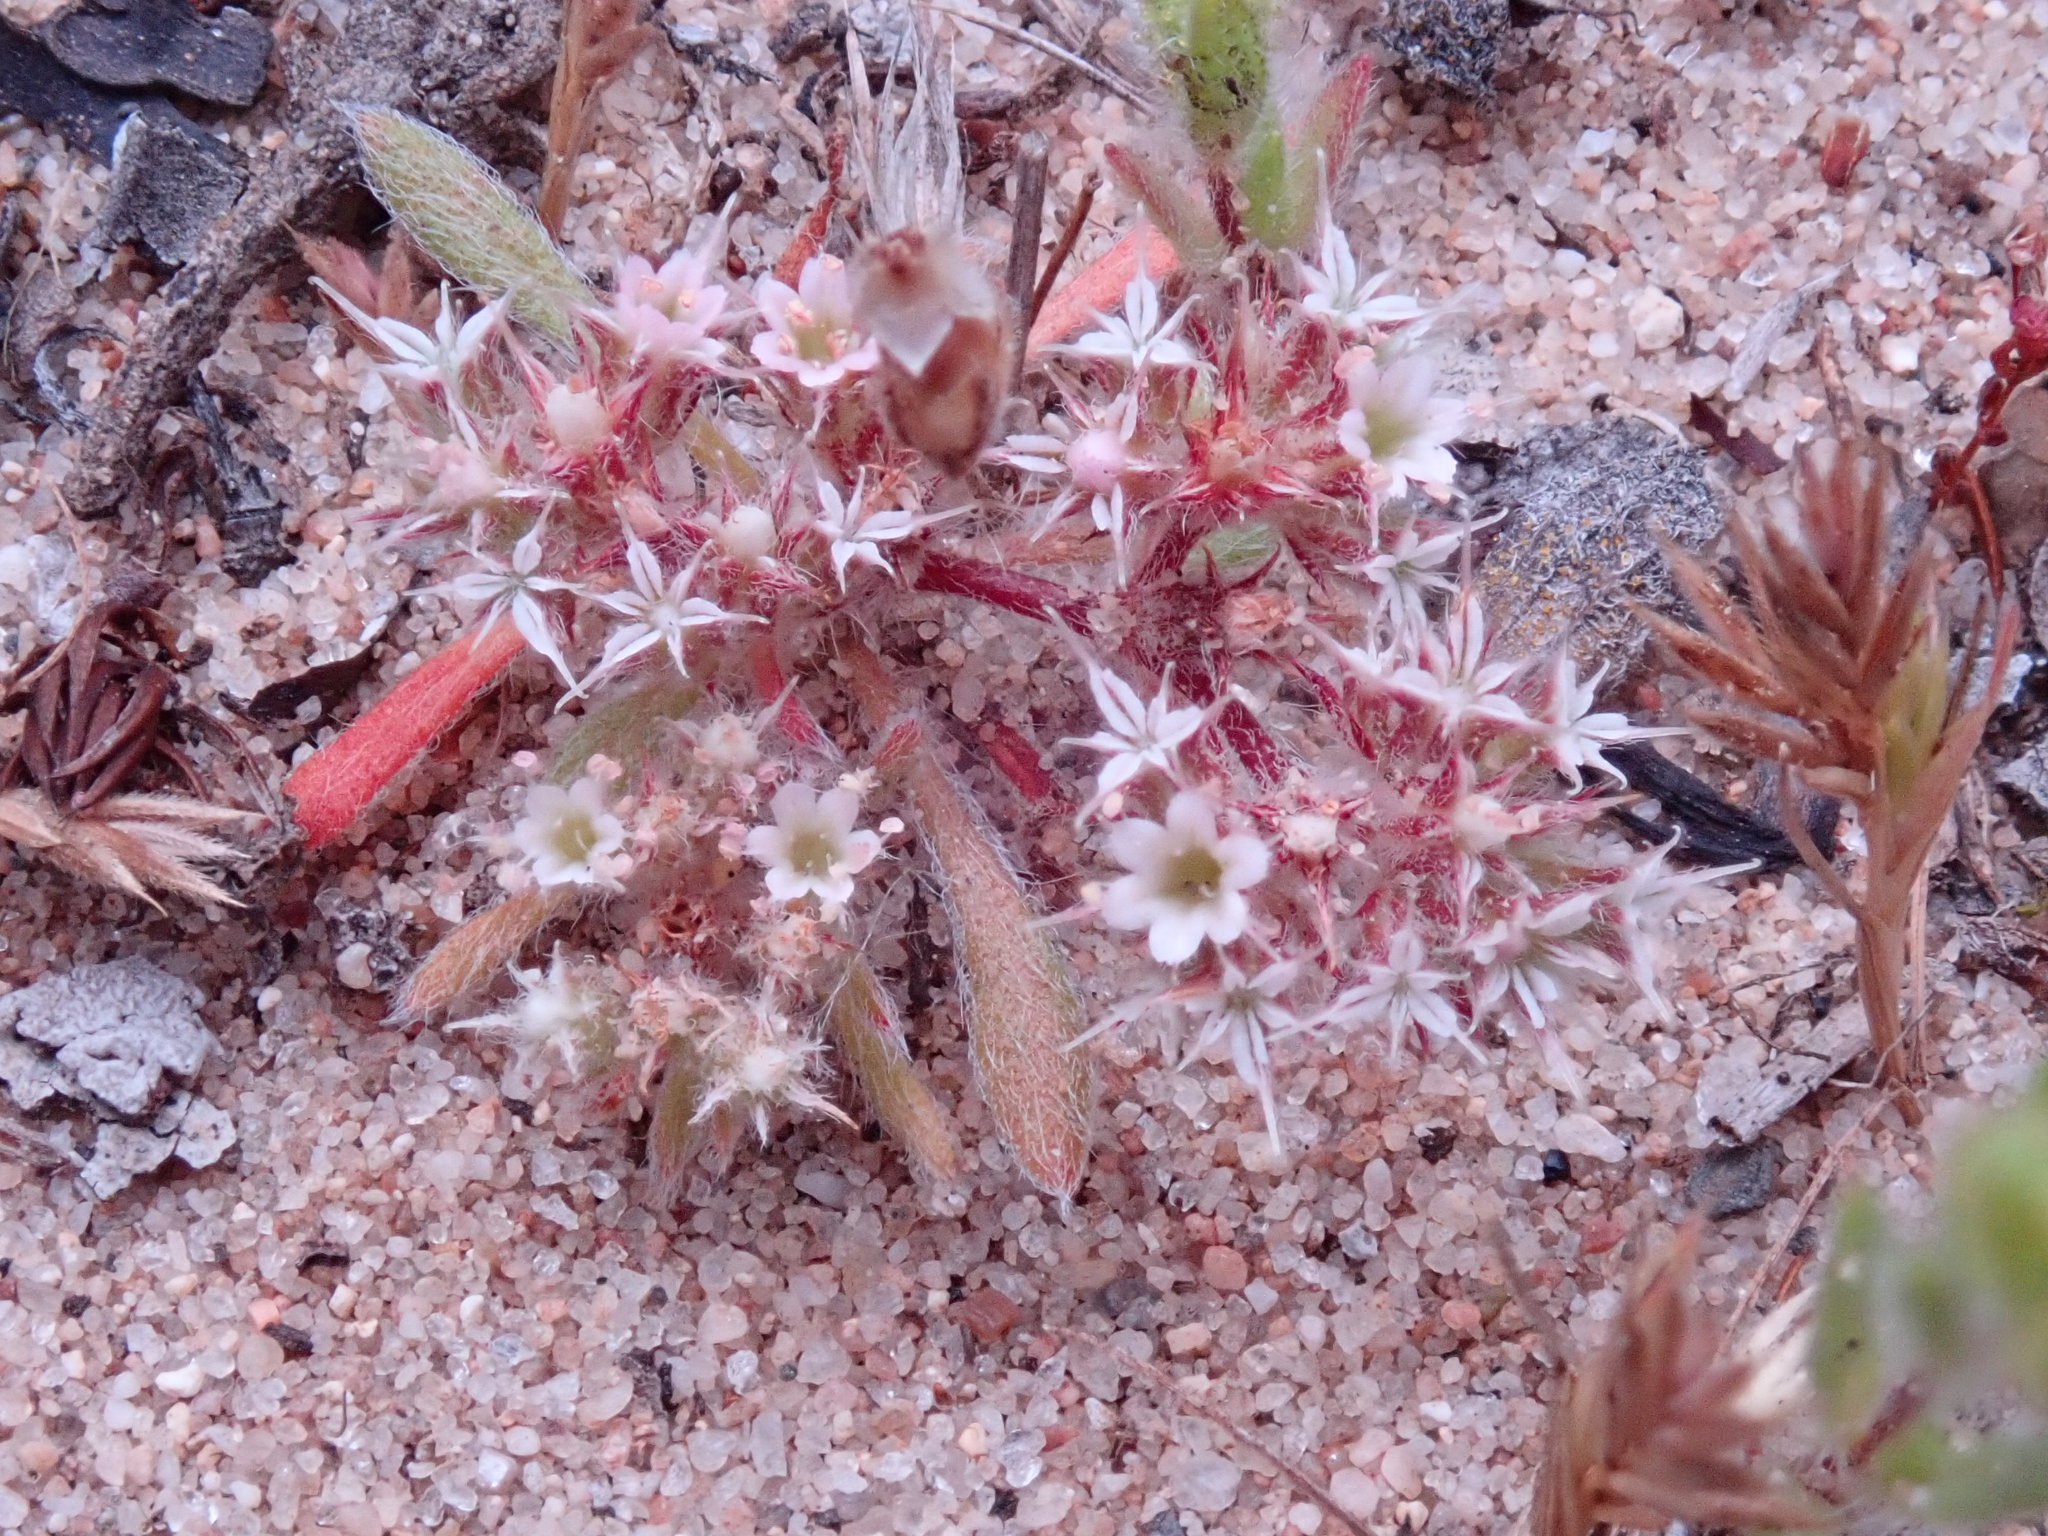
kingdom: Plantae
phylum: Tracheophyta
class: Magnoliopsida
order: Caryophyllales
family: Polygonaceae
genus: Chorizanthe
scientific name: Chorizanthe pungens
